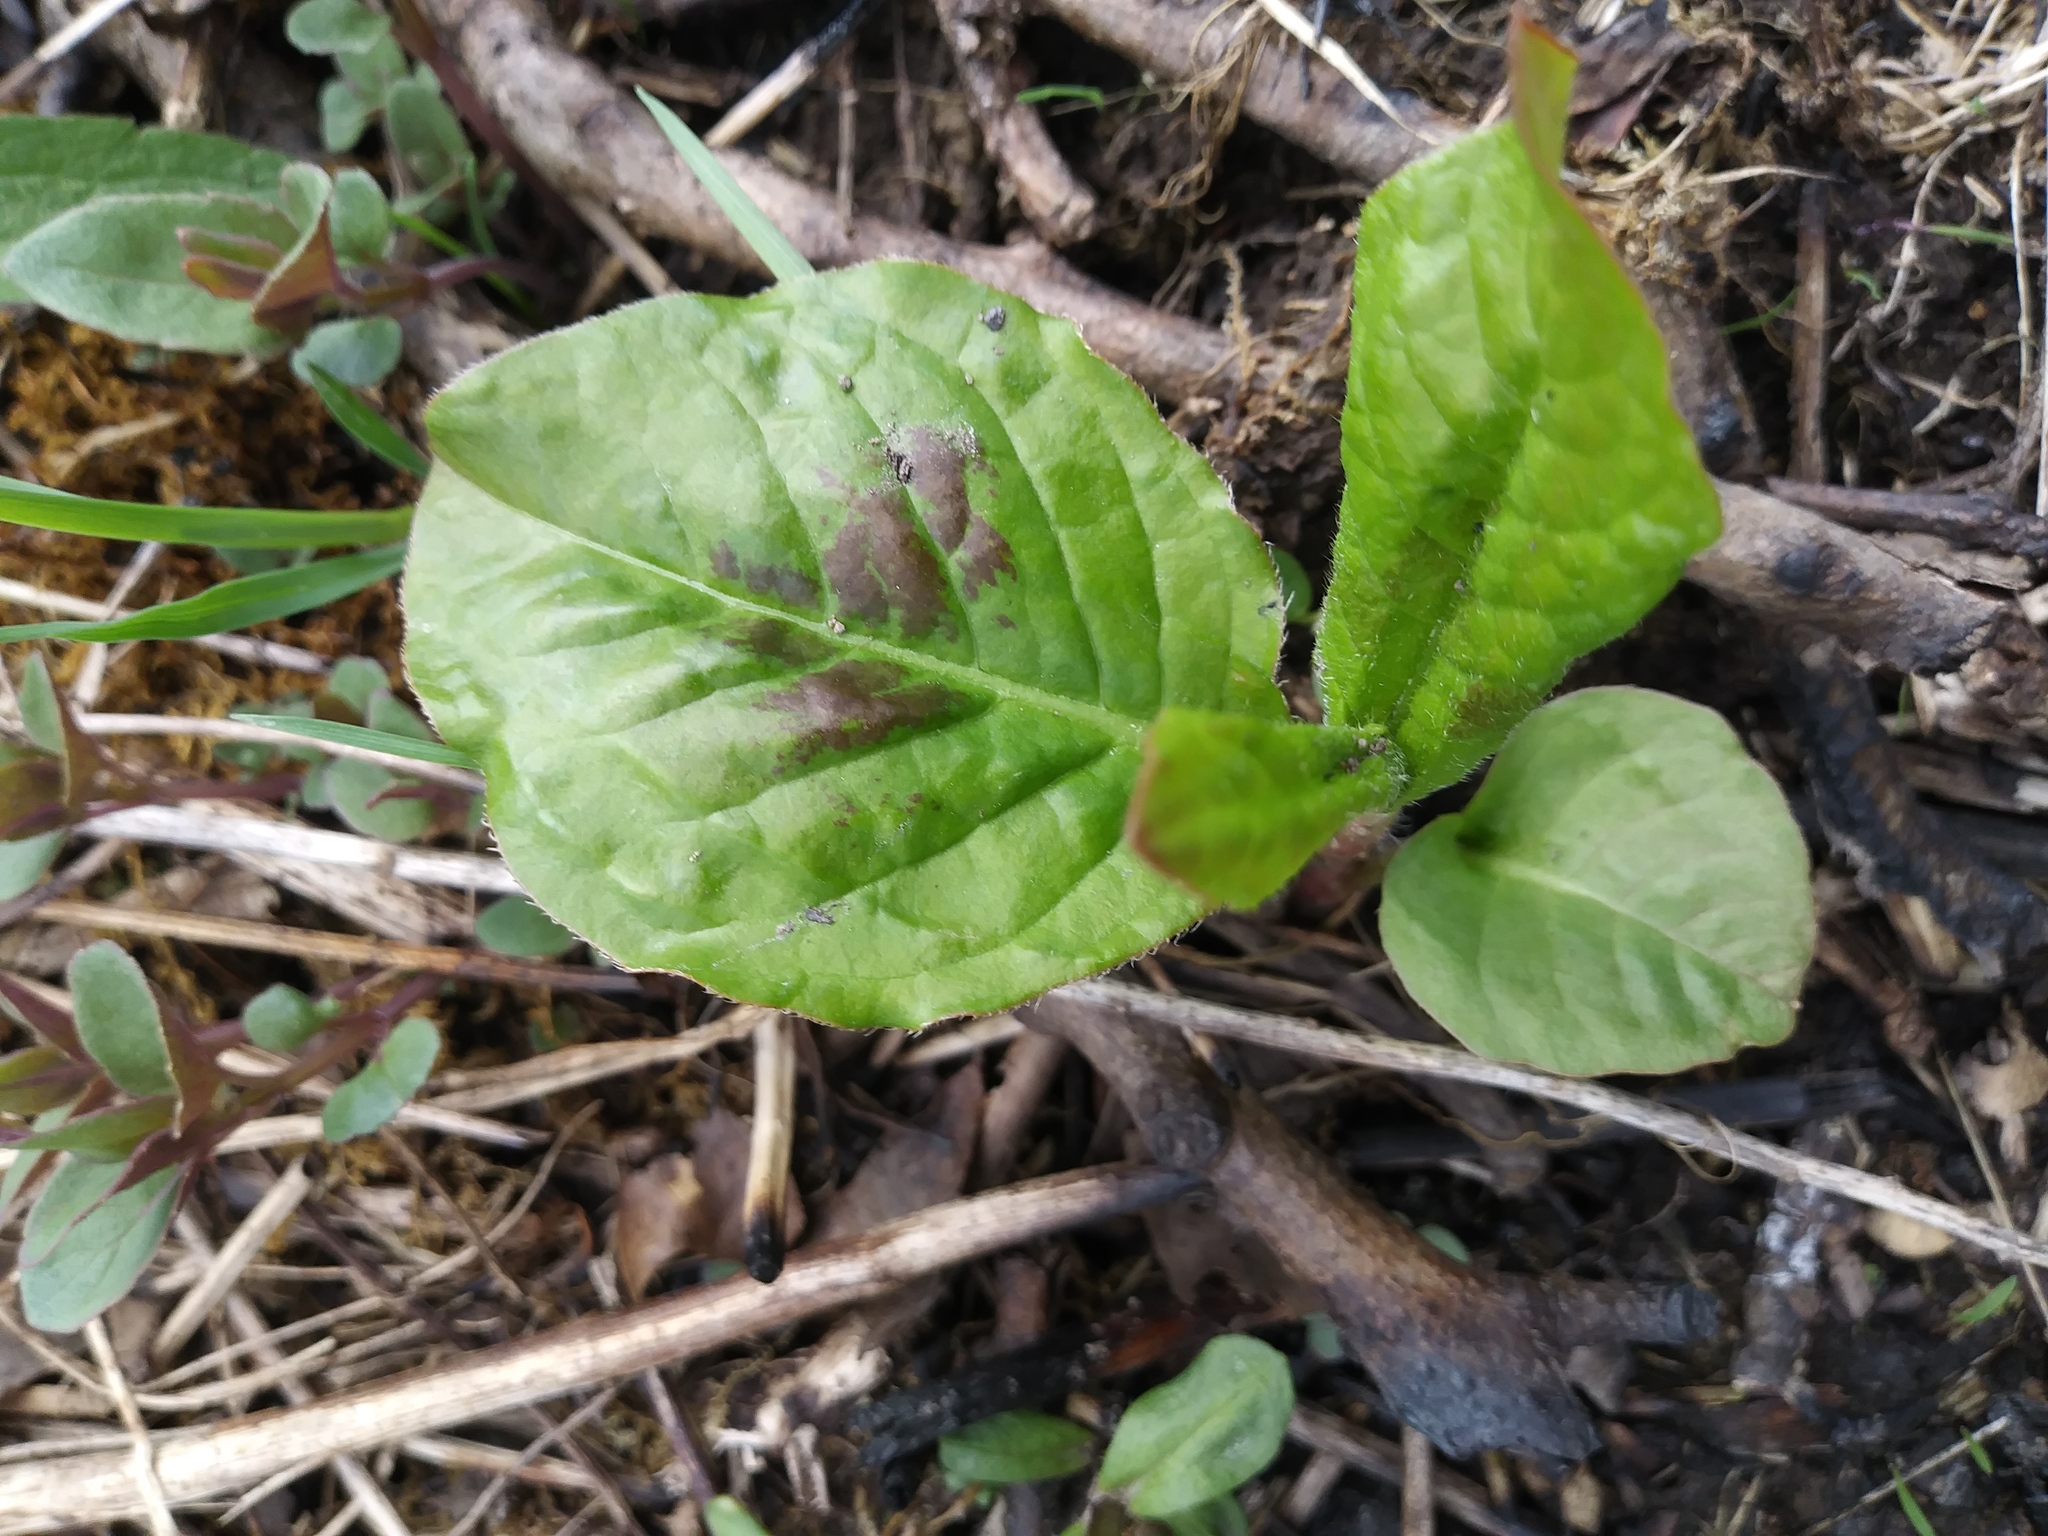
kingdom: Plantae
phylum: Tracheophyta
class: Magnoliopsida
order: Caryophyllales
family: Polygonaceae
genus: Persicaria
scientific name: Persicaria virginiana
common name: Jumpseed
